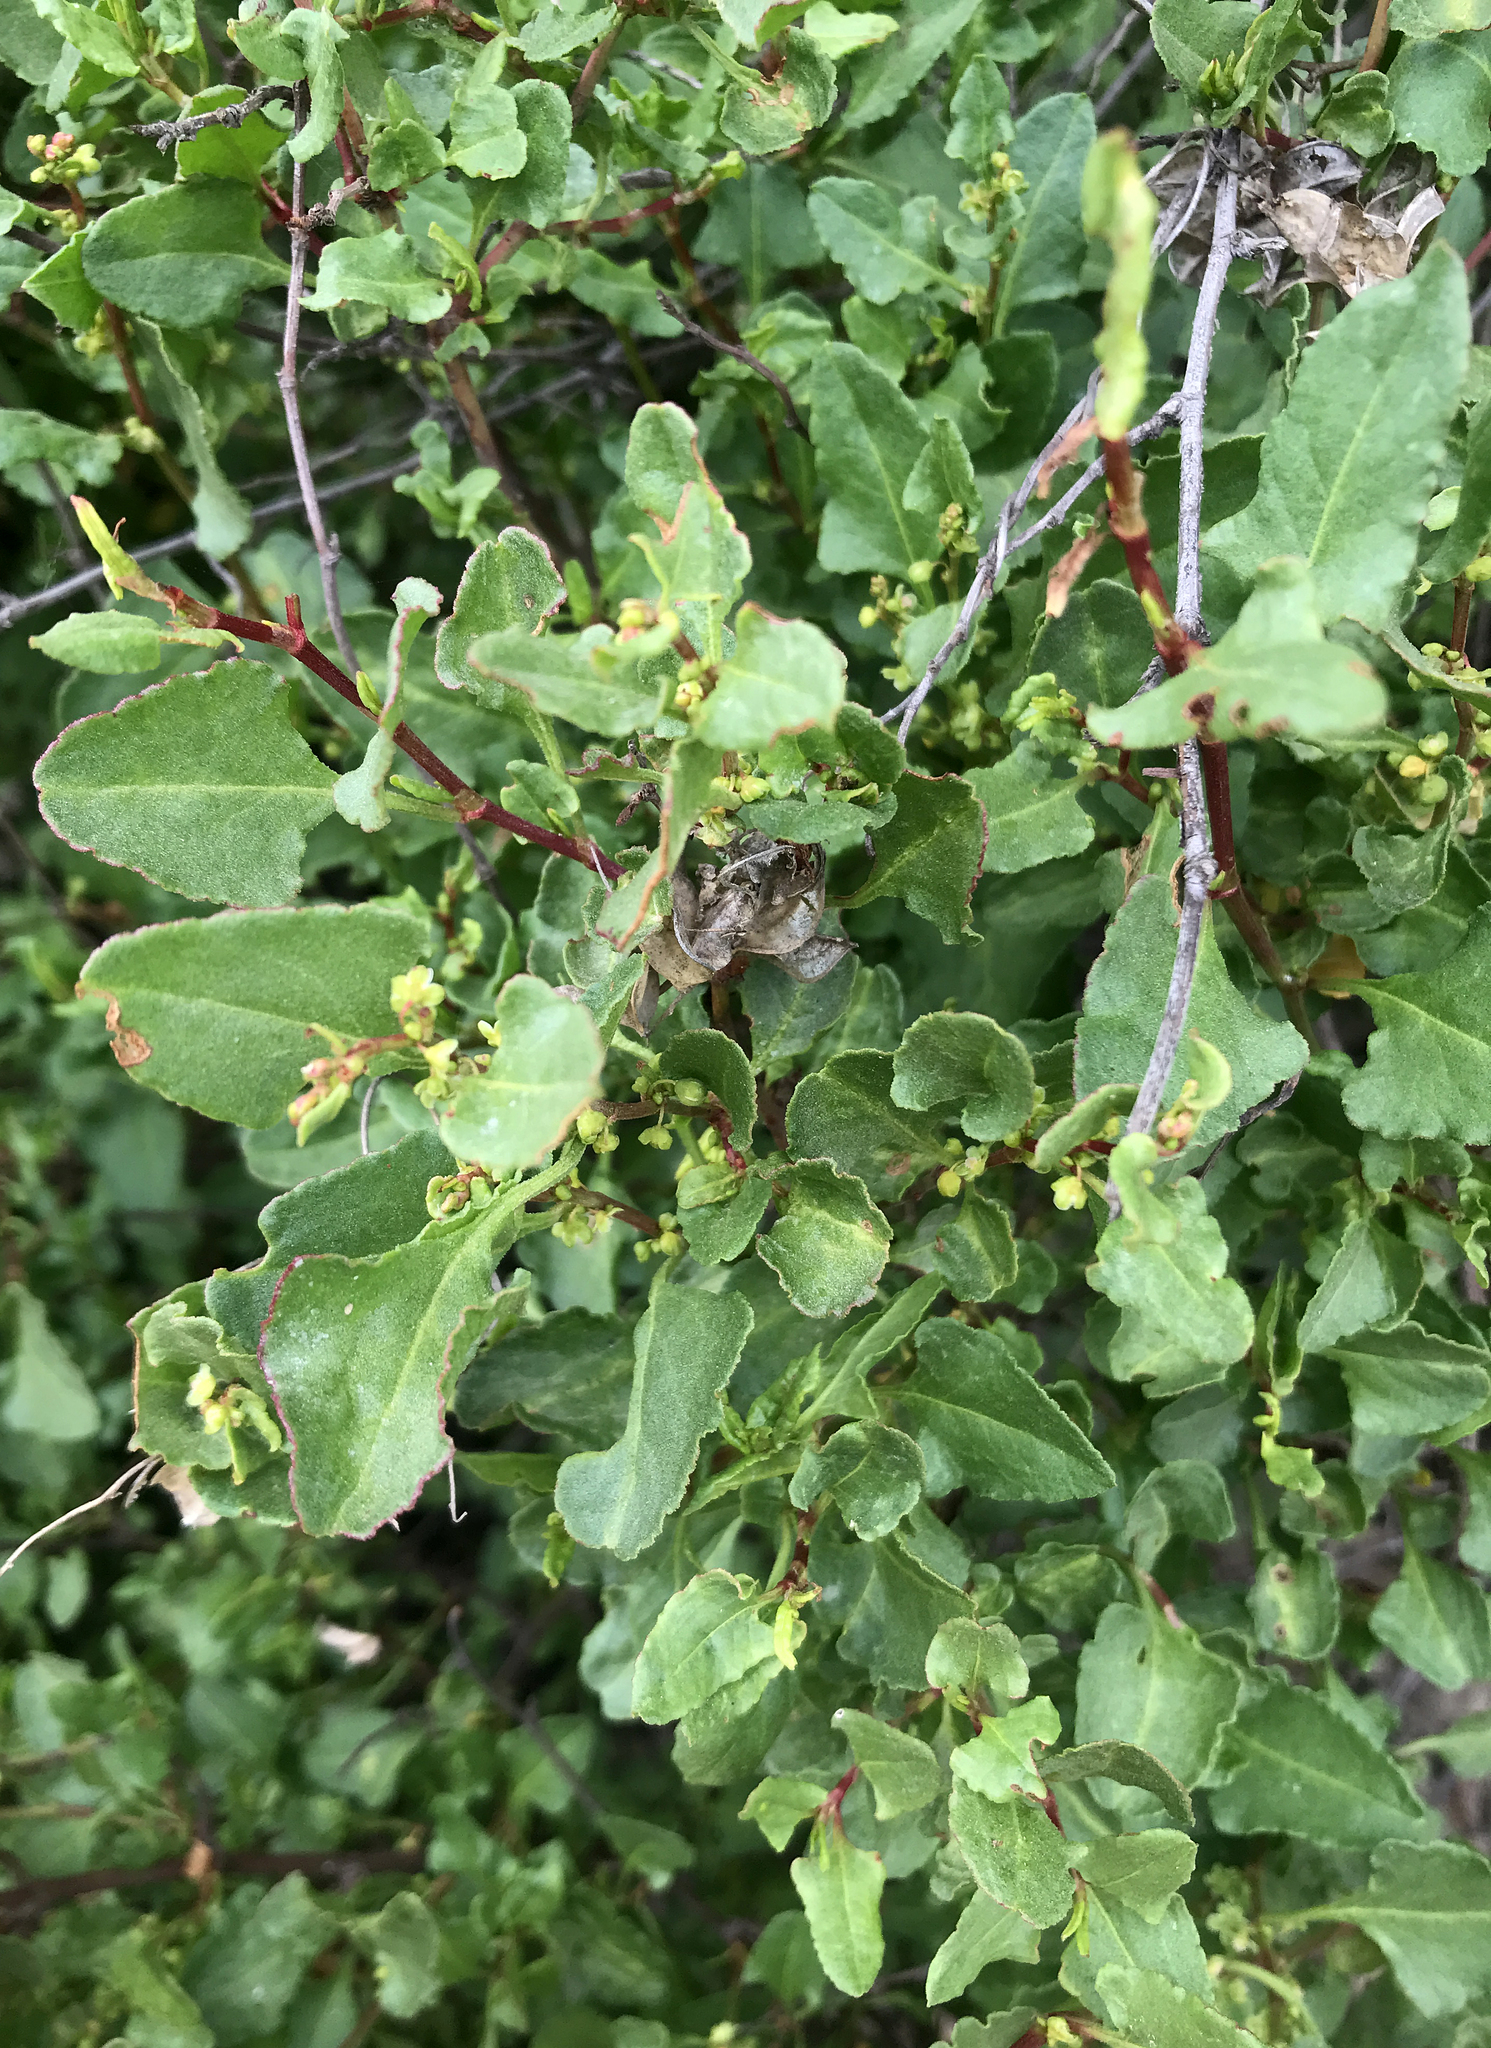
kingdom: Plantae
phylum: Tracheophyta
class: Magnoliopsida
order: Caryophyllales
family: Polygonaceae
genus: Muehlenbeckia
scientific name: Muehlenbeckia hastulata
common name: Wirevine
